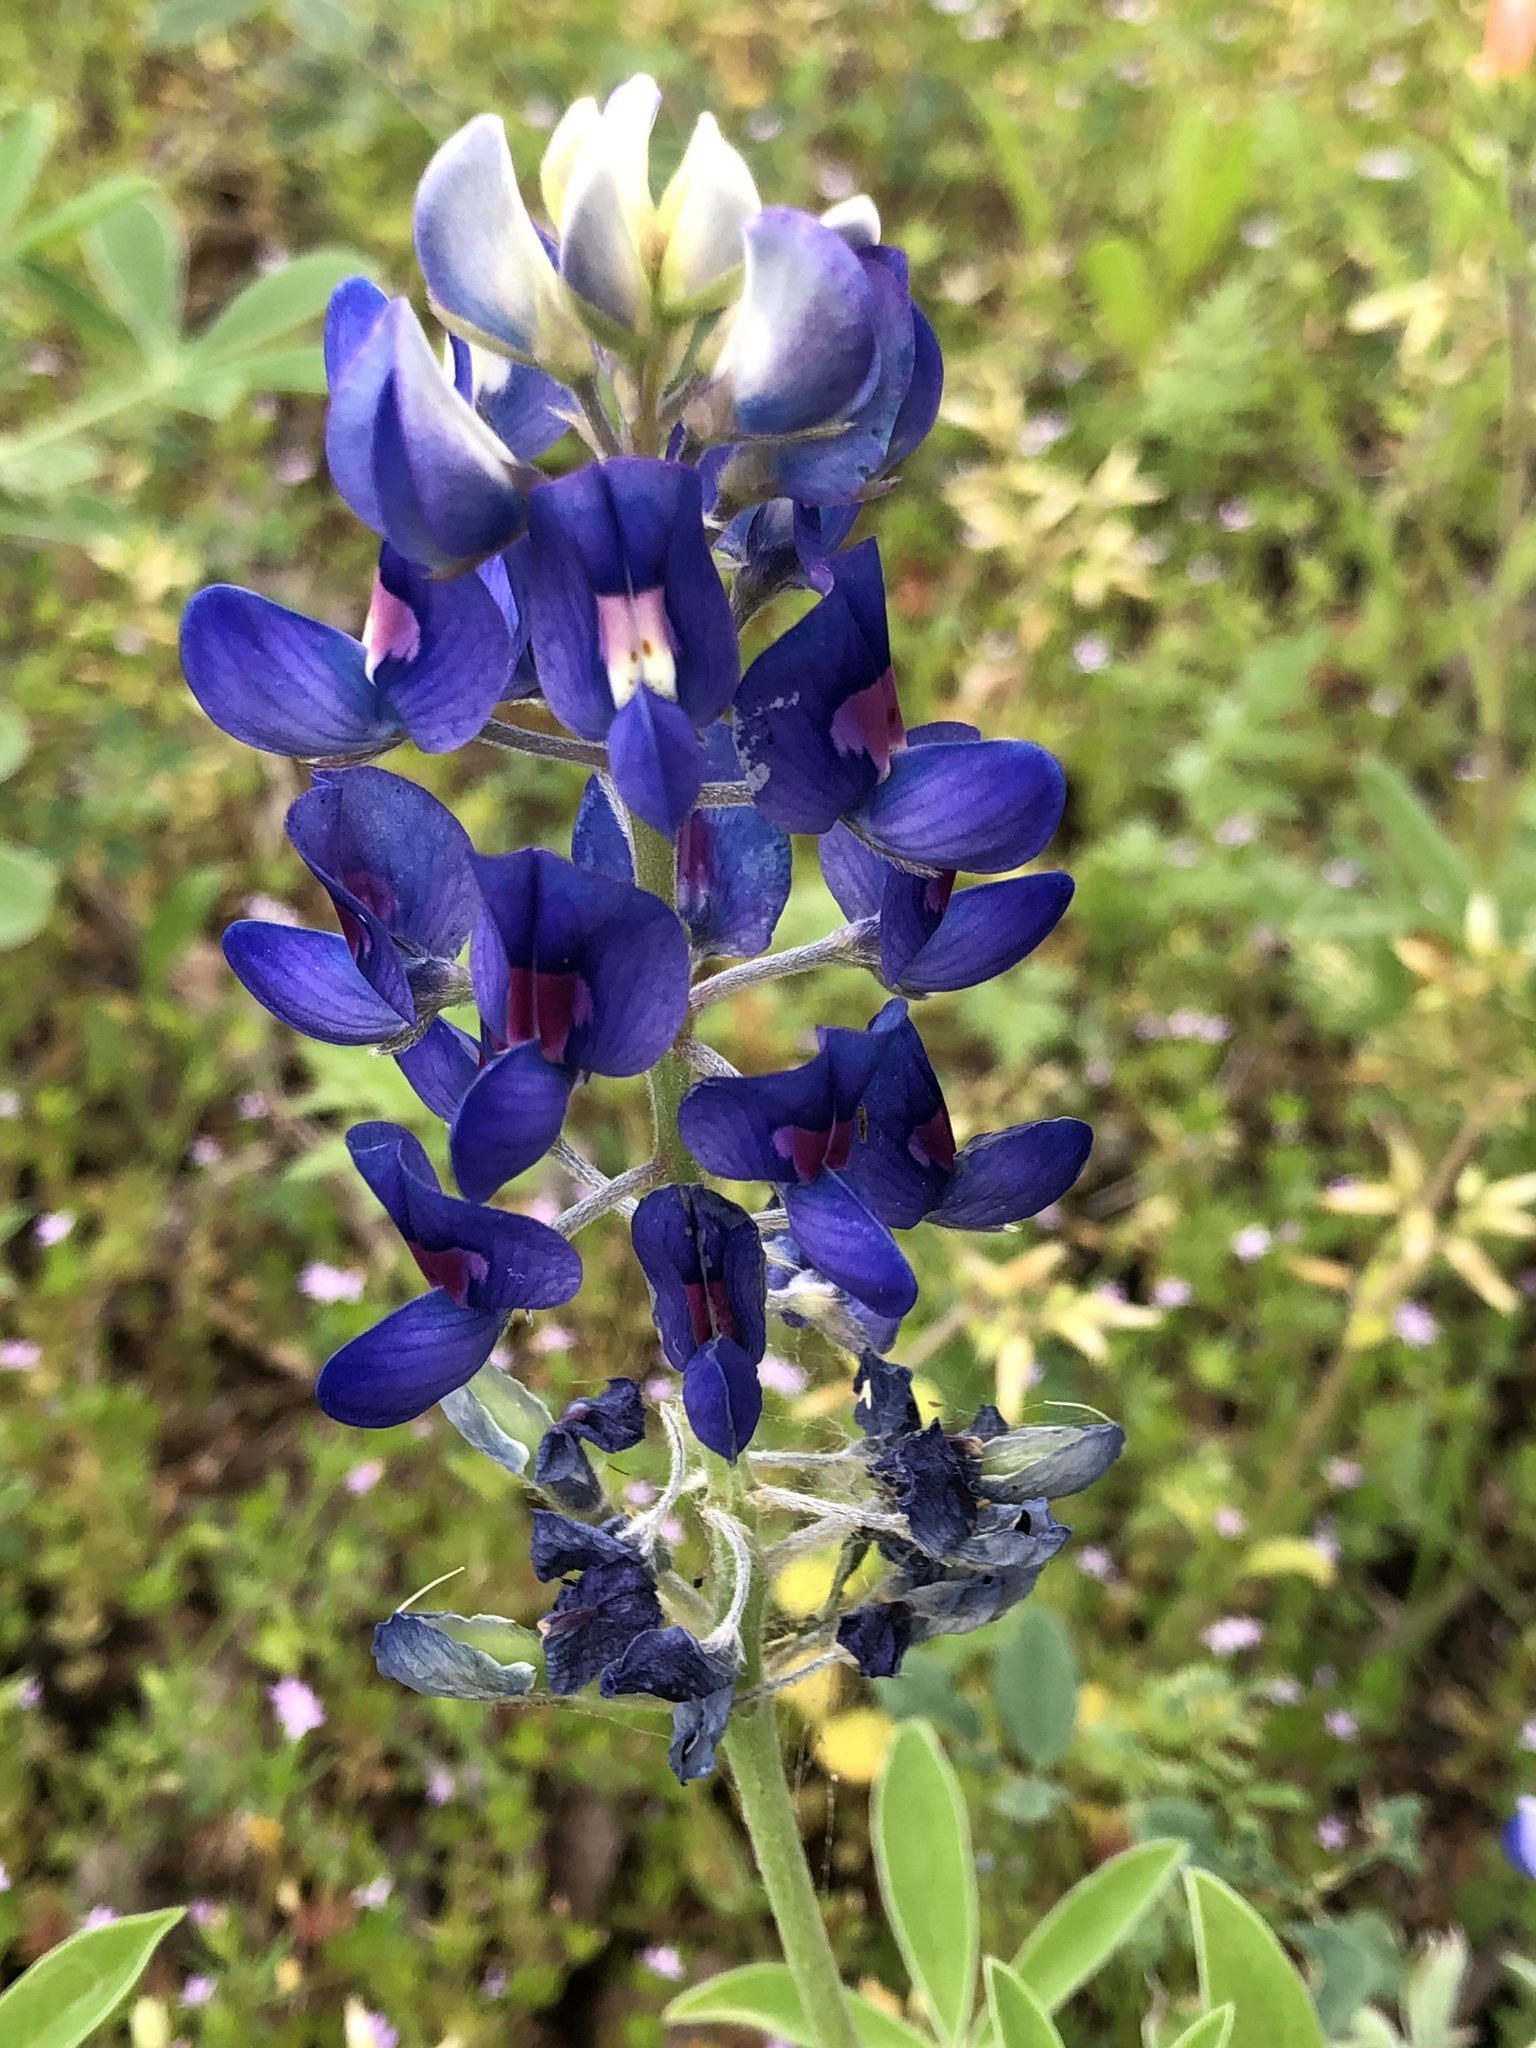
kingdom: Plantae
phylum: Tracheophyta
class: Magnoliopsida
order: Fabales
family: Fabaceae
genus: Lupinus
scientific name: Lupinus texensis
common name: Texas bluebonnet
